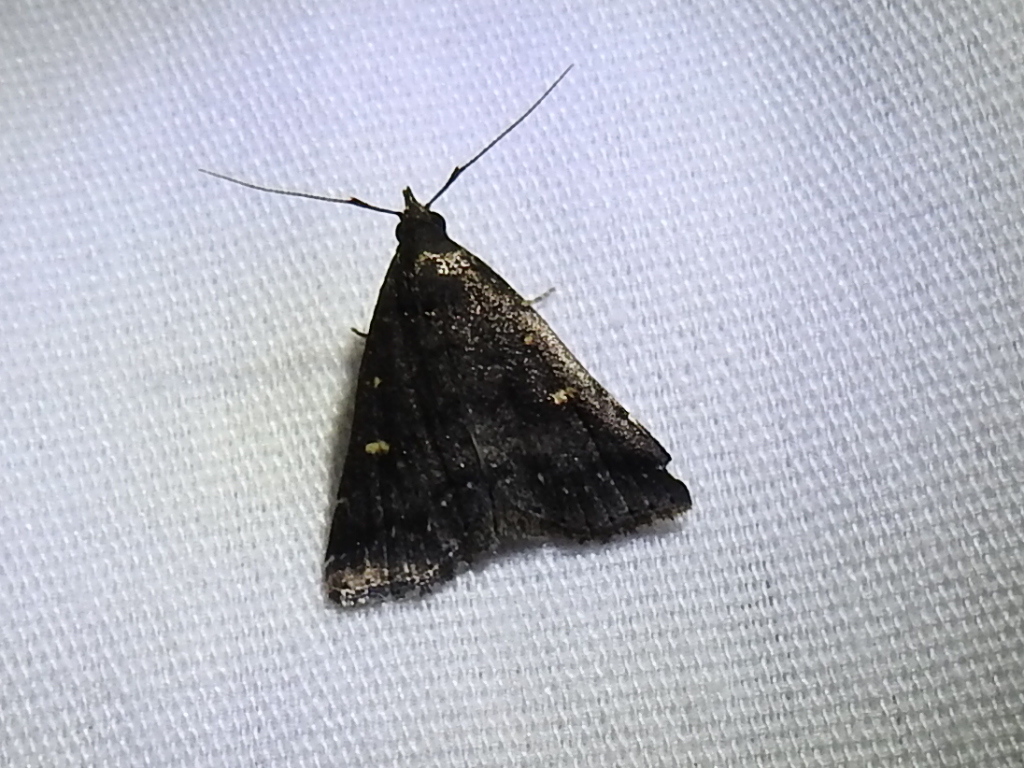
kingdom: Animalia
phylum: Arthropoda
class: Insecta
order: Lepidoptera
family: Erebidae
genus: Tetanolita
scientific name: Tetanolita mynesalis
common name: Smoky tetanolita moth
